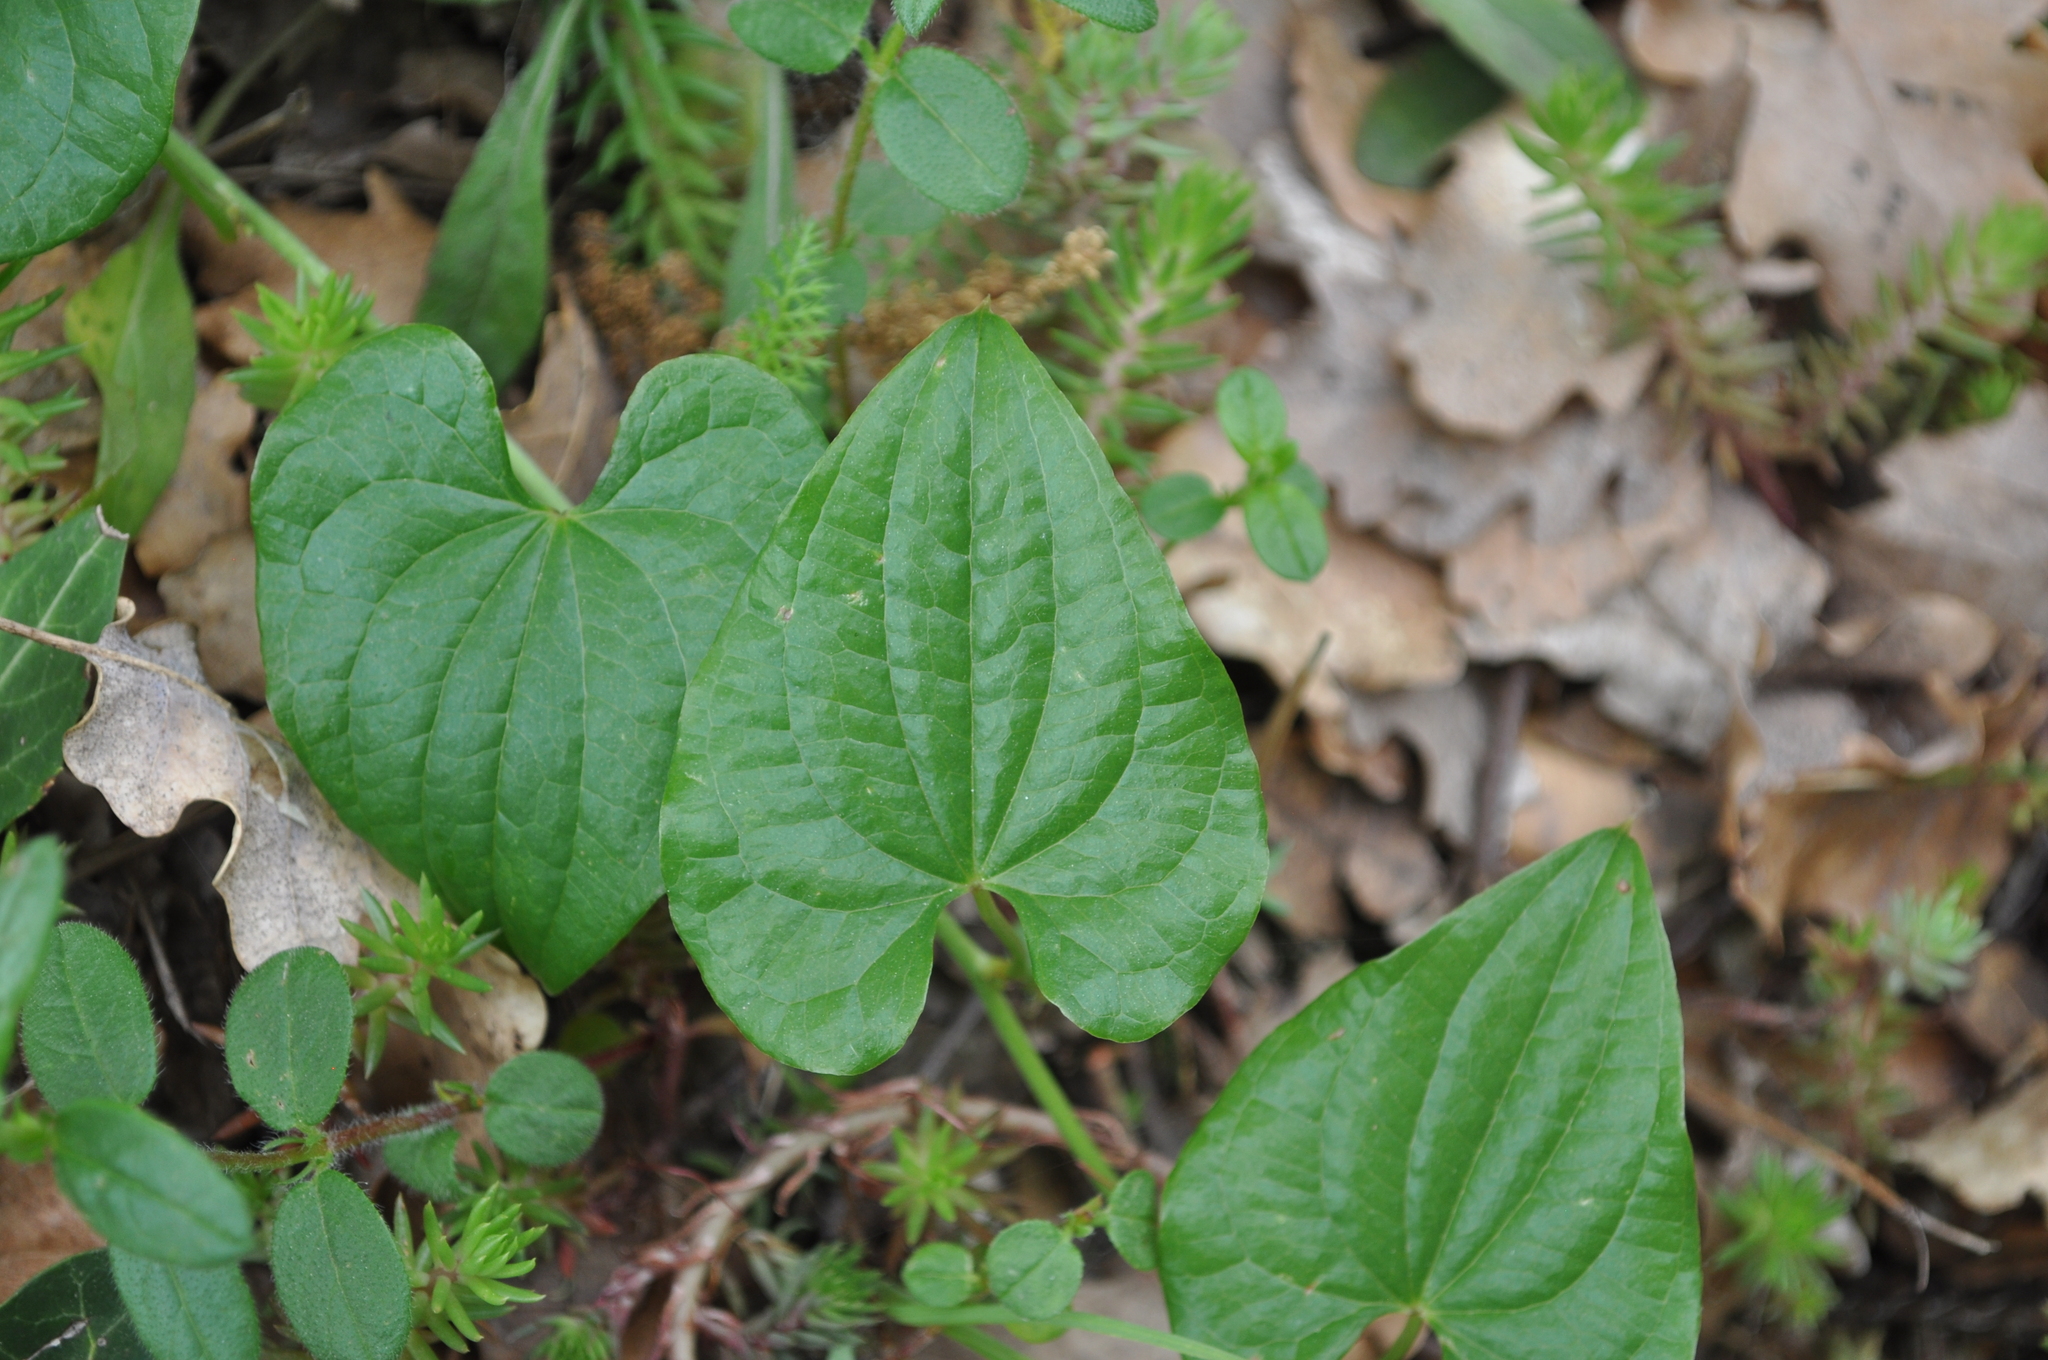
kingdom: Plantae
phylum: Tracheophyta
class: Liliopsida
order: Dioscoreales
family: Dioscoreaceae
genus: Dioscorea
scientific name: Dioscorea communis
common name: Black-bindweed
